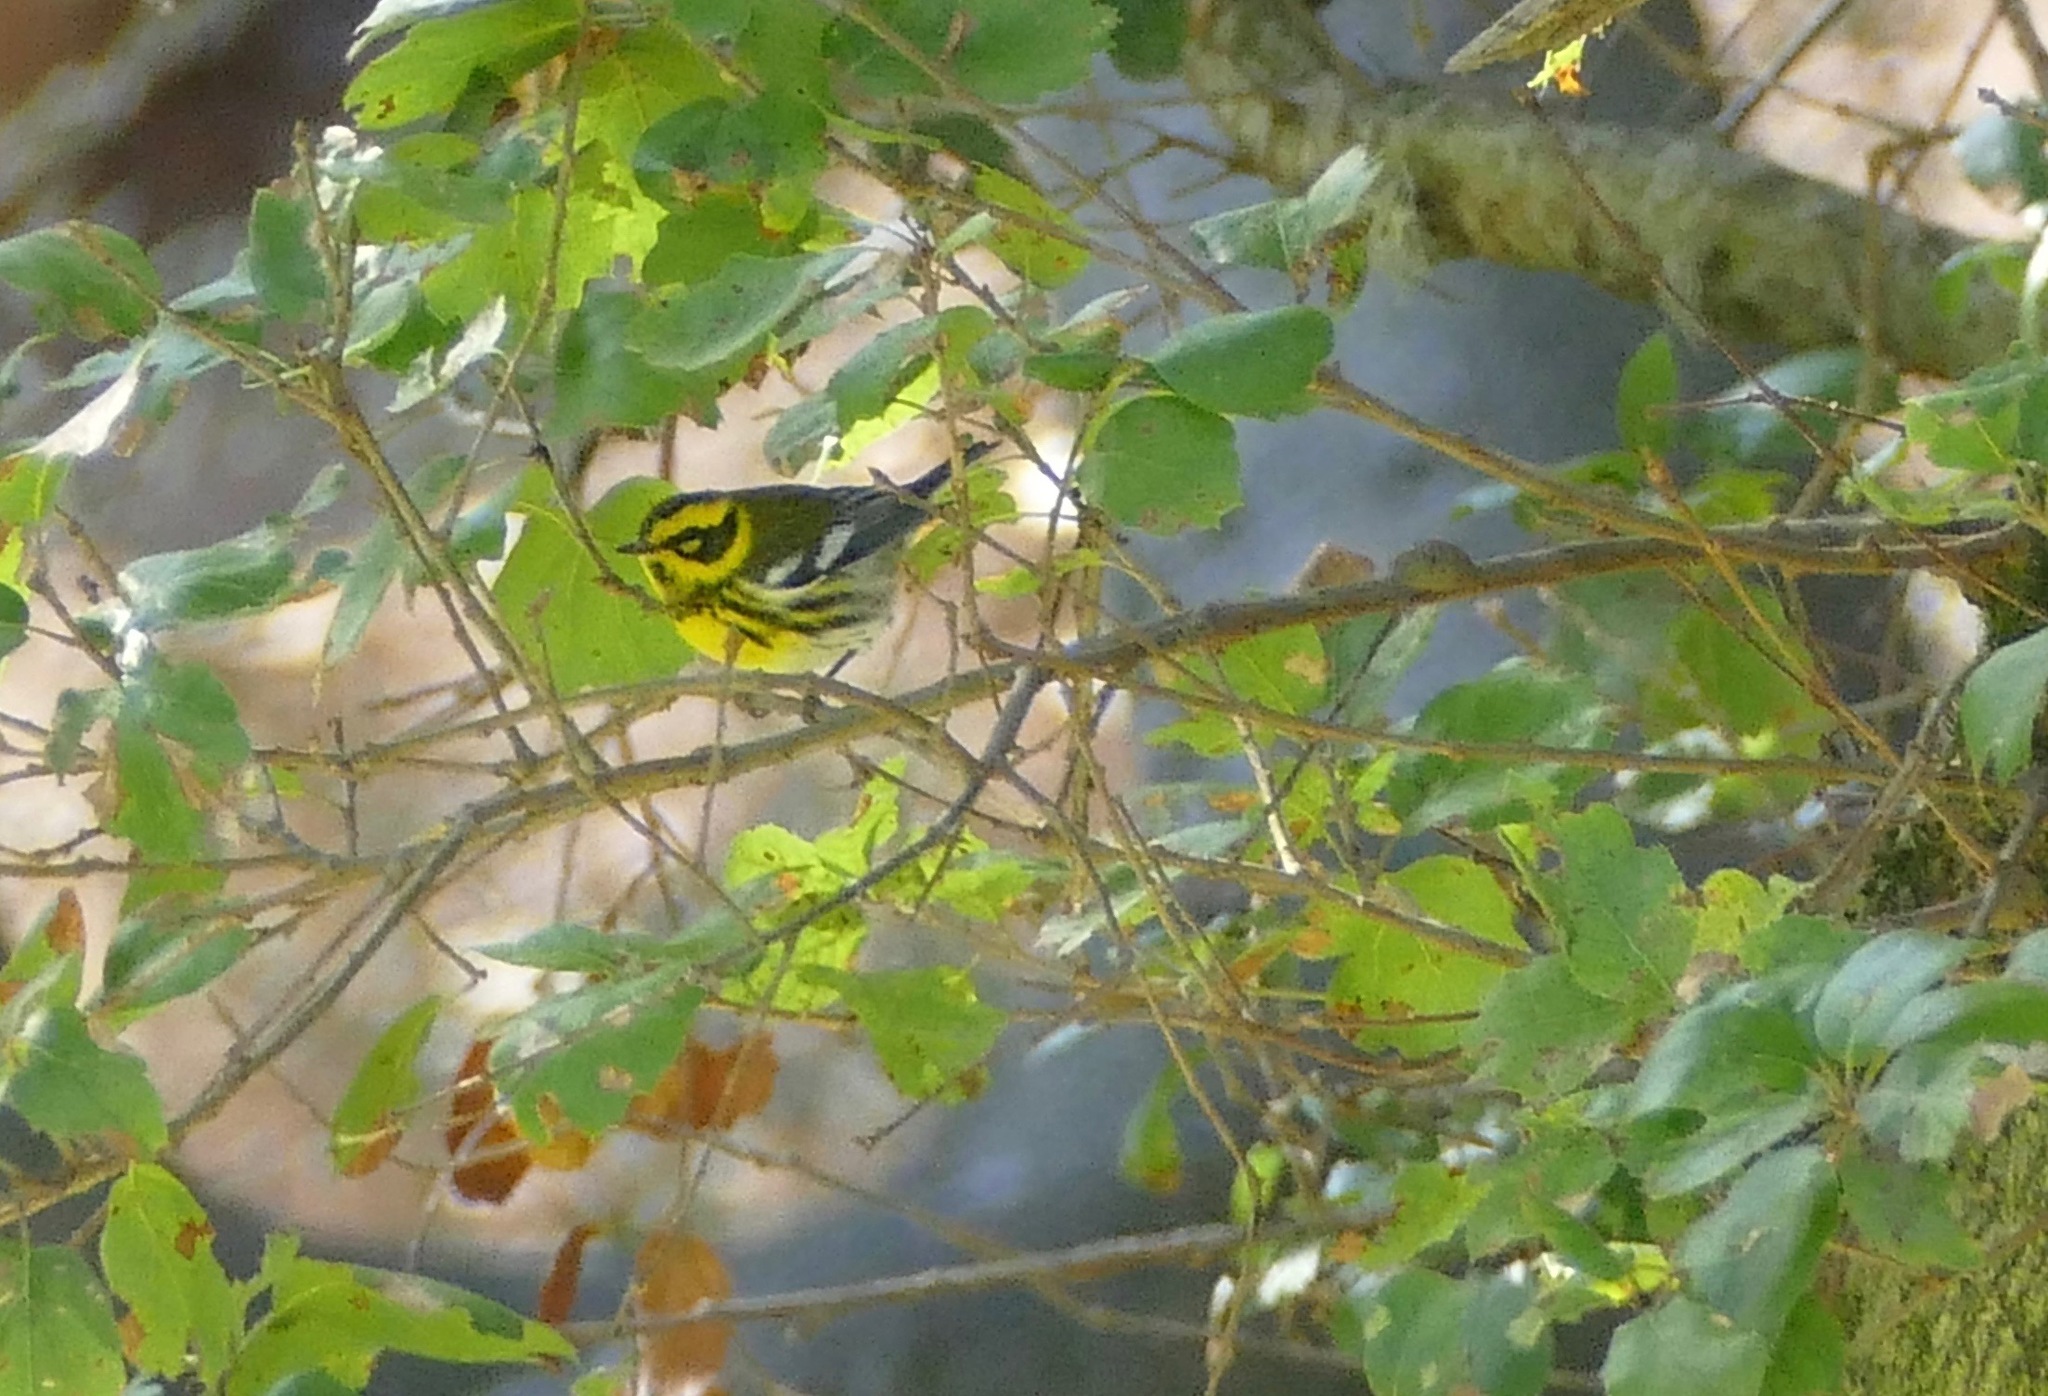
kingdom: Animalia
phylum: Chordata
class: Aves
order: Passeriformes
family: Parulidae
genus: Setophaga
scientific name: Setophaga townsendi
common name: Townsend's warbler
